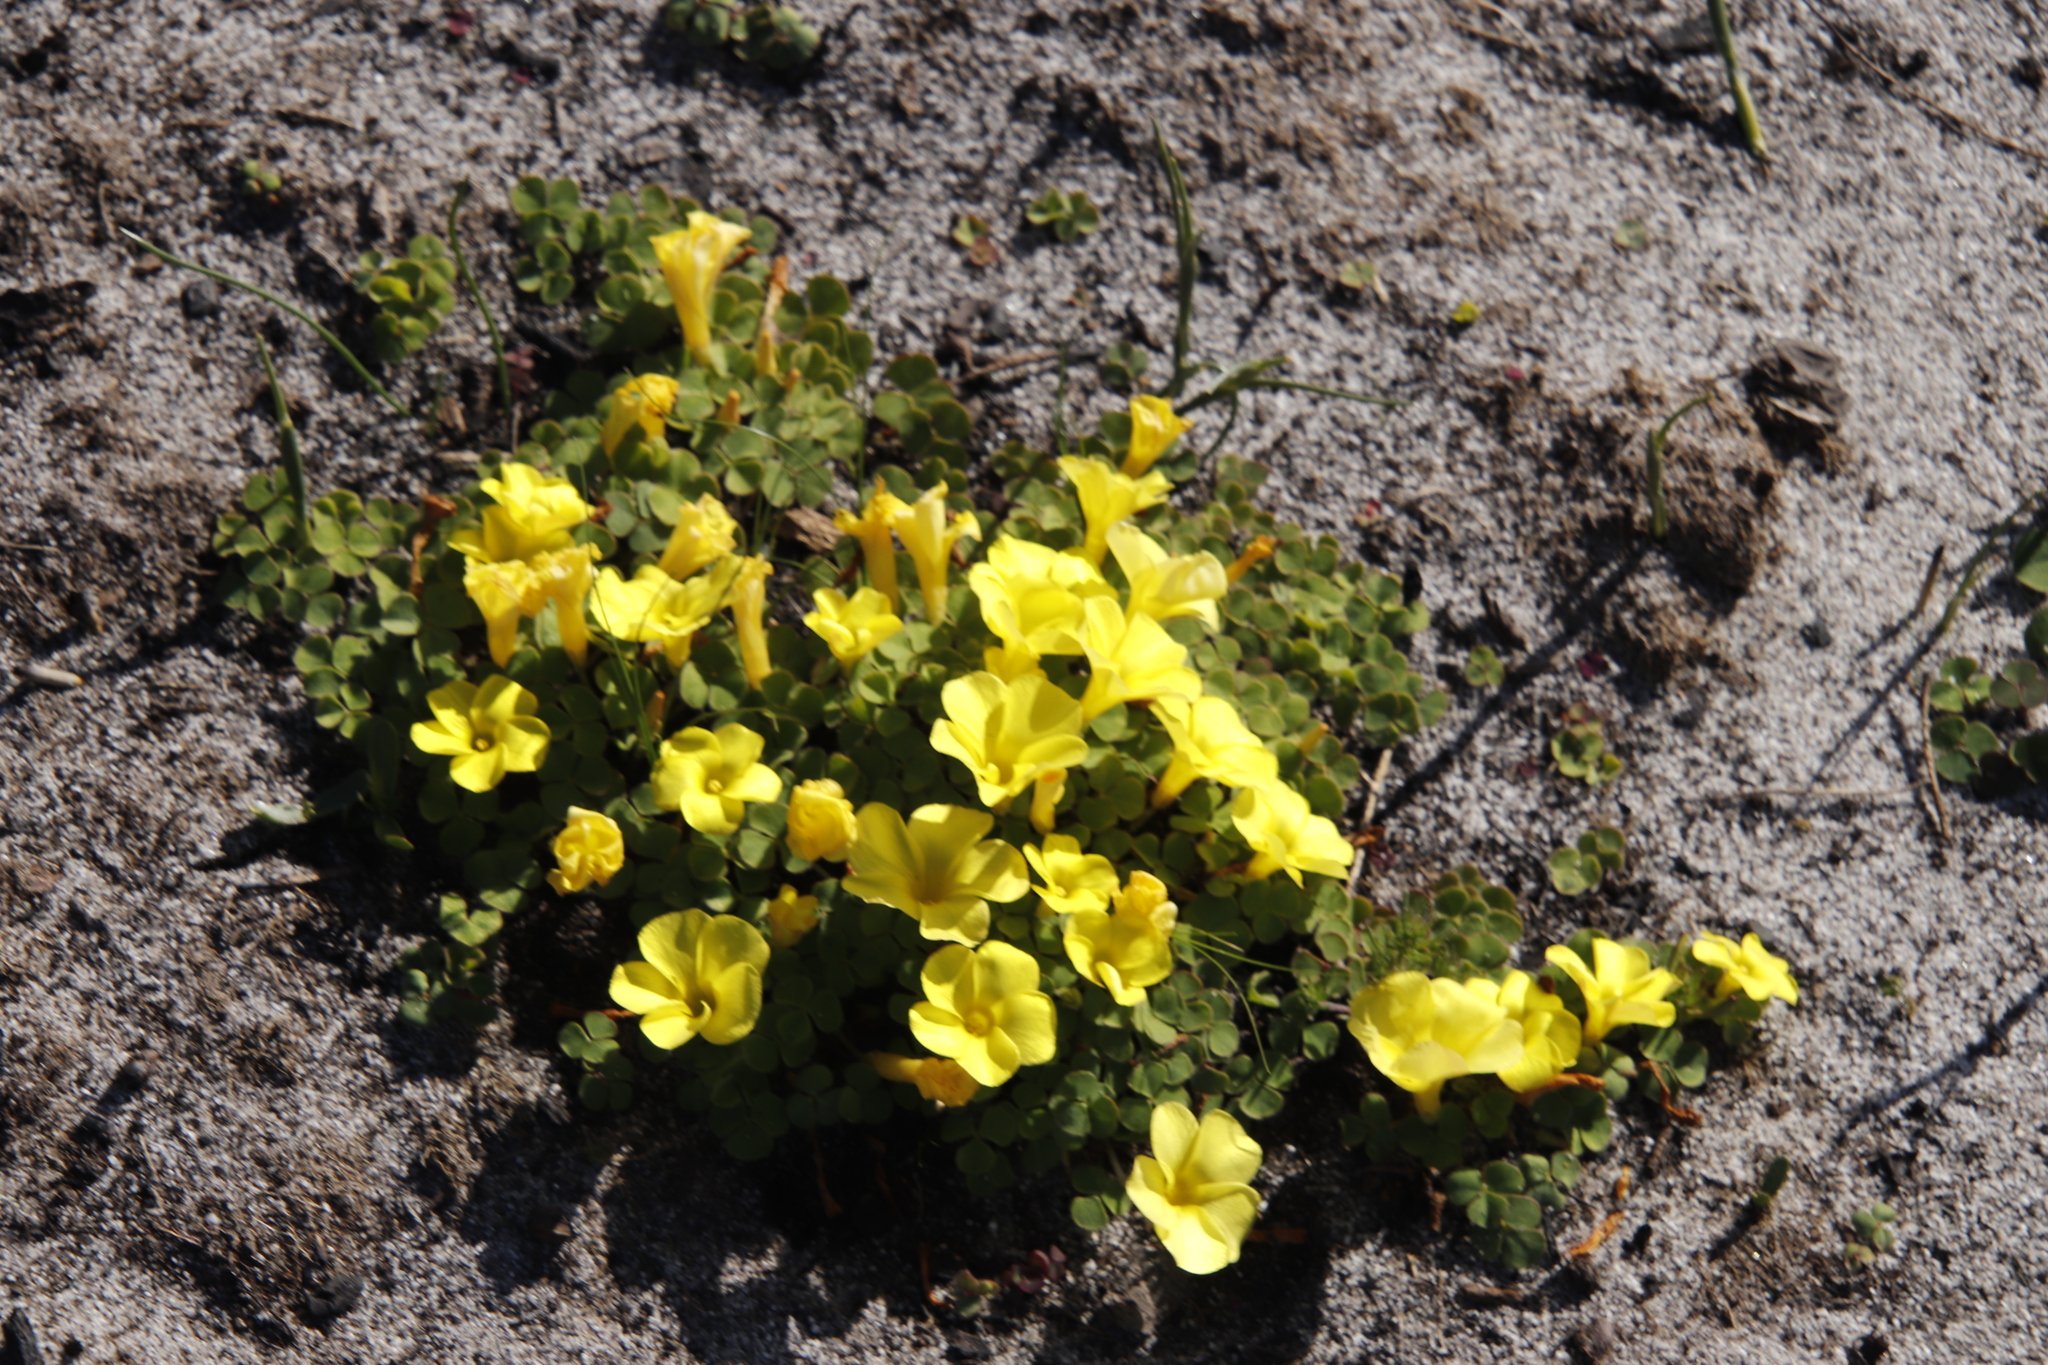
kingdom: Plantae
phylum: Tracheophyta
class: Magnoliopsida
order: Oxalidales
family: Oxalidaceae
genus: Oxalis
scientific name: Oxalis luteola
